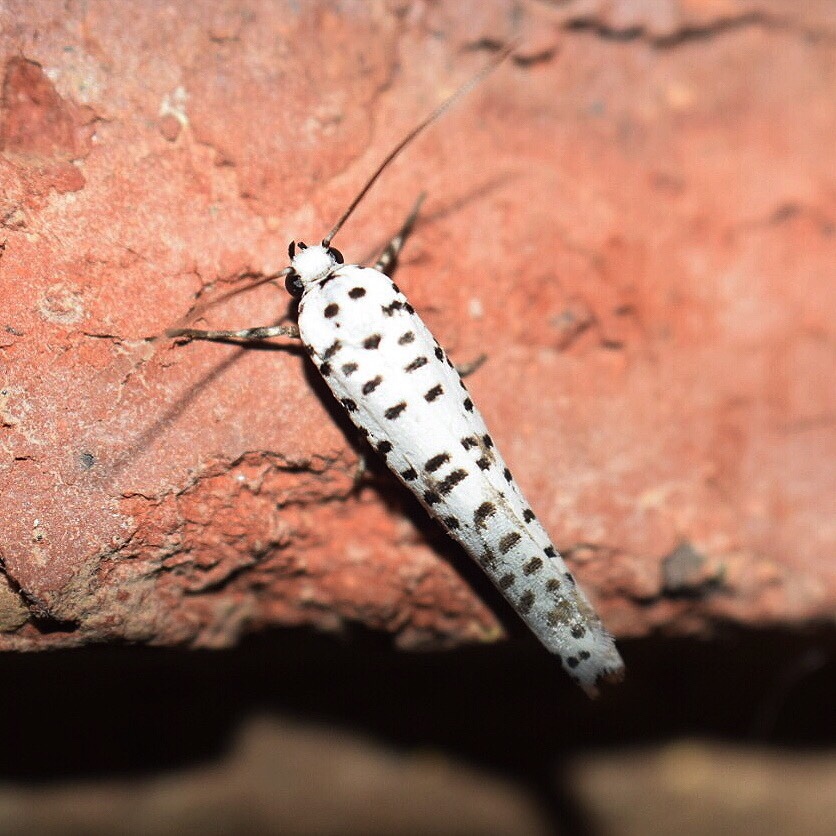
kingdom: Animalia
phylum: Arthropoda
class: Insecta
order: Lepidoptera
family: Yponomeutidae
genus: Yponomeuta
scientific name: Yponomeuta strigillata
